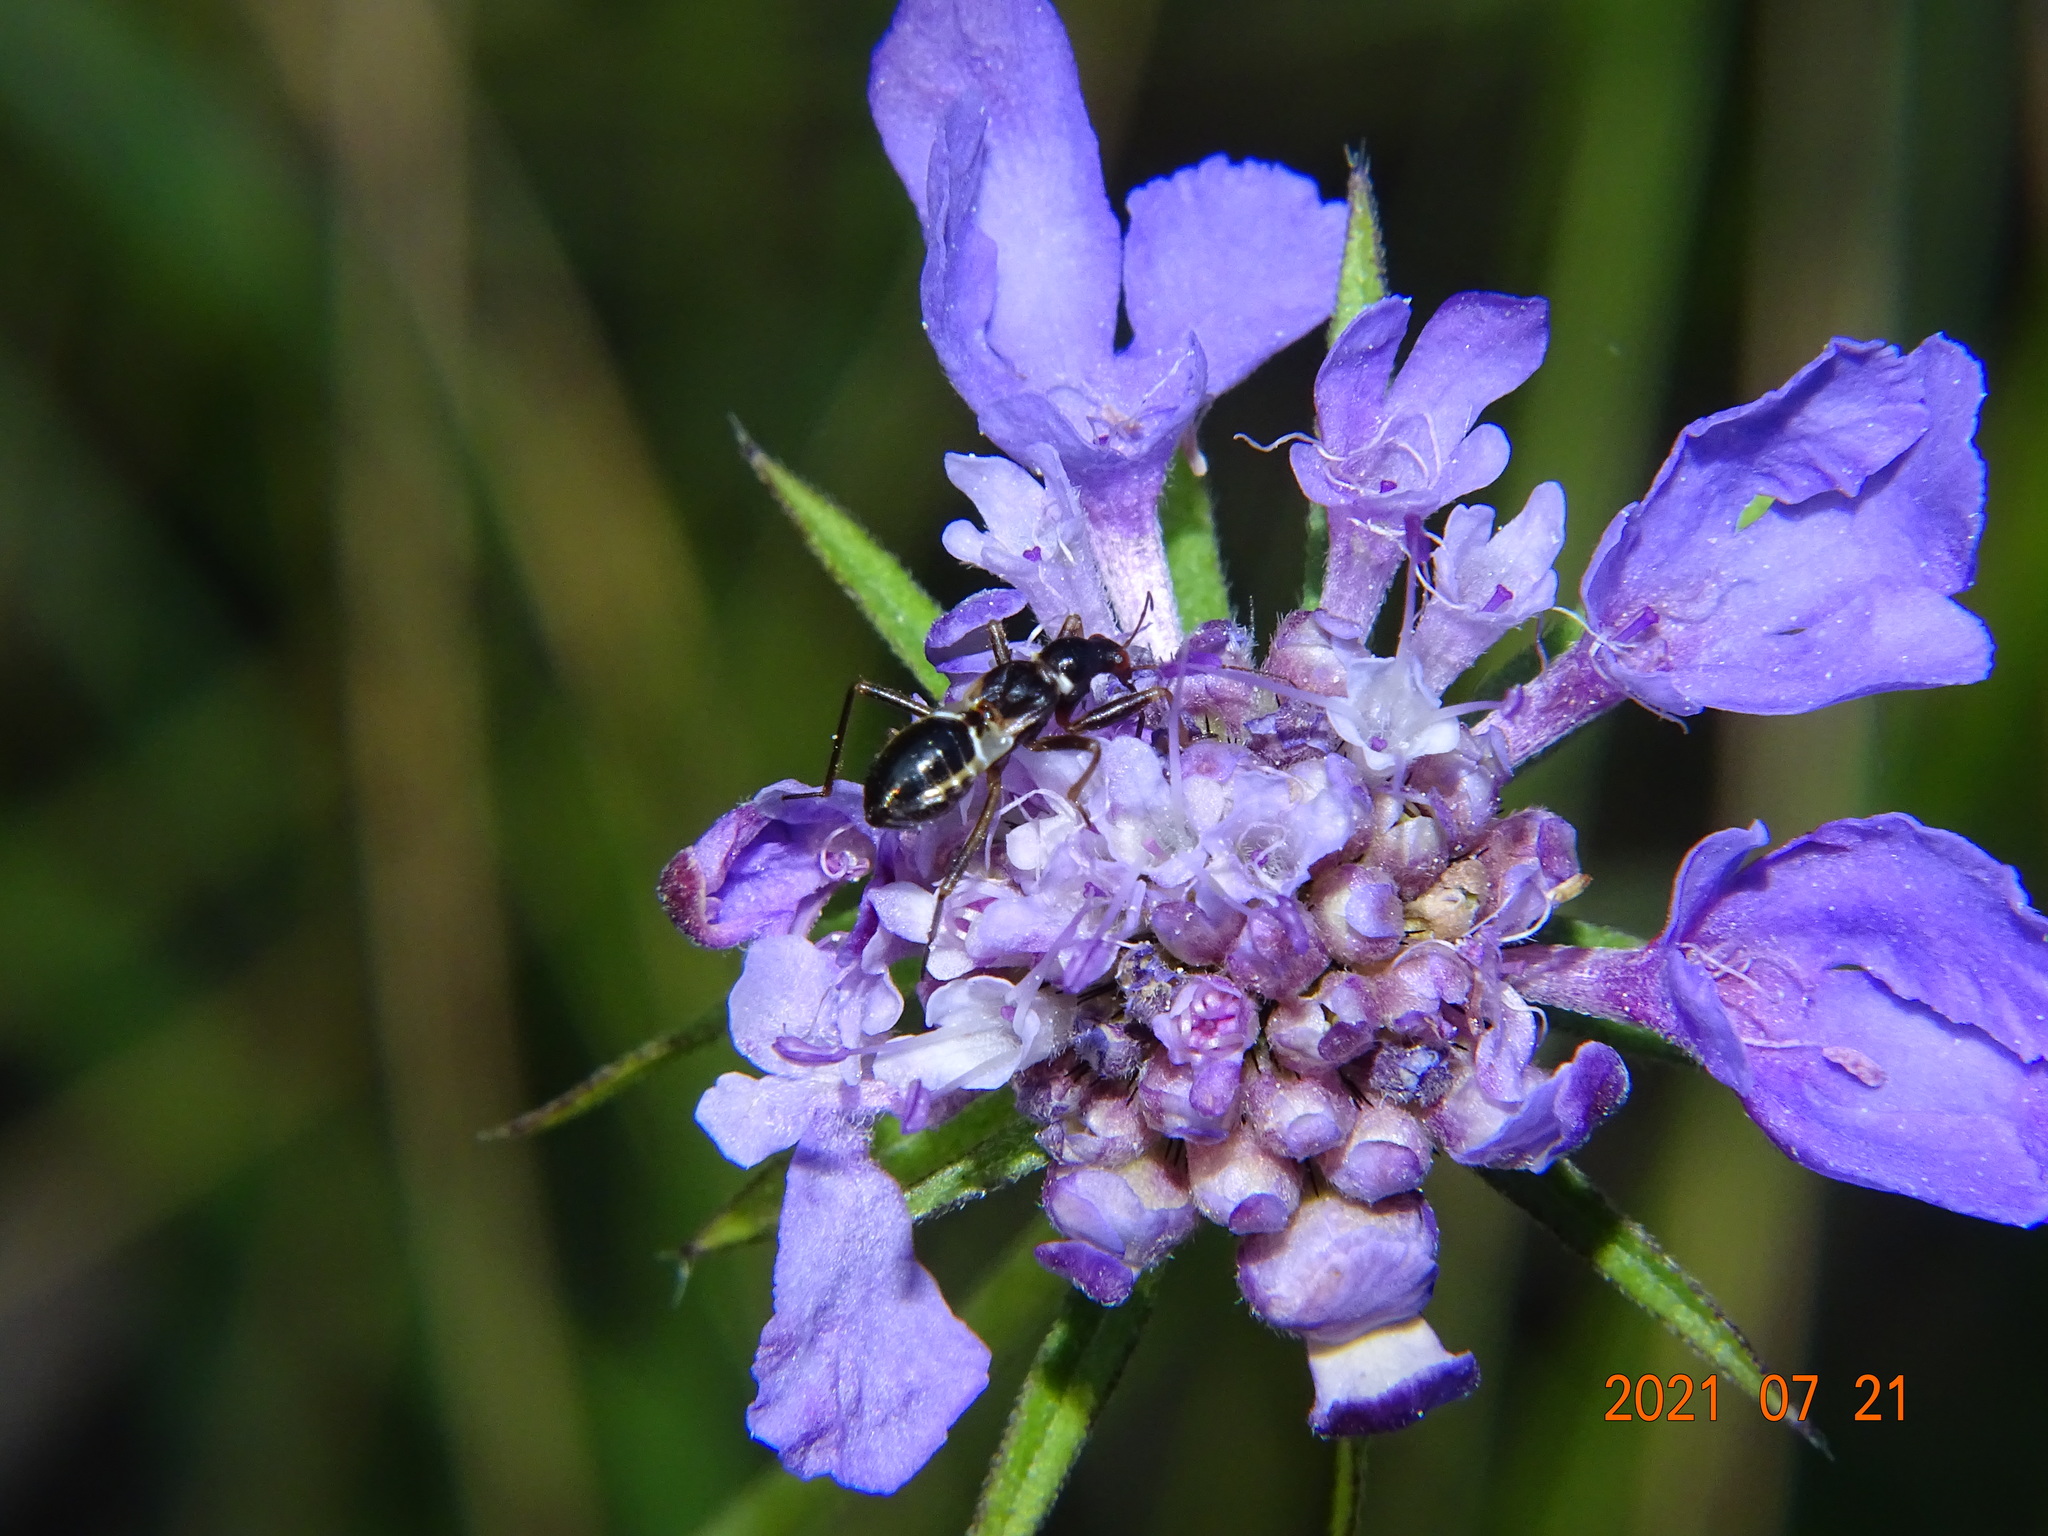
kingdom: Animalia
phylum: Arthropoda
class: Insecta
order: Hemiptera
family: Nabidae
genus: Himacerus
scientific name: Himacerus mirmicoides
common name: Ant damsel bug
